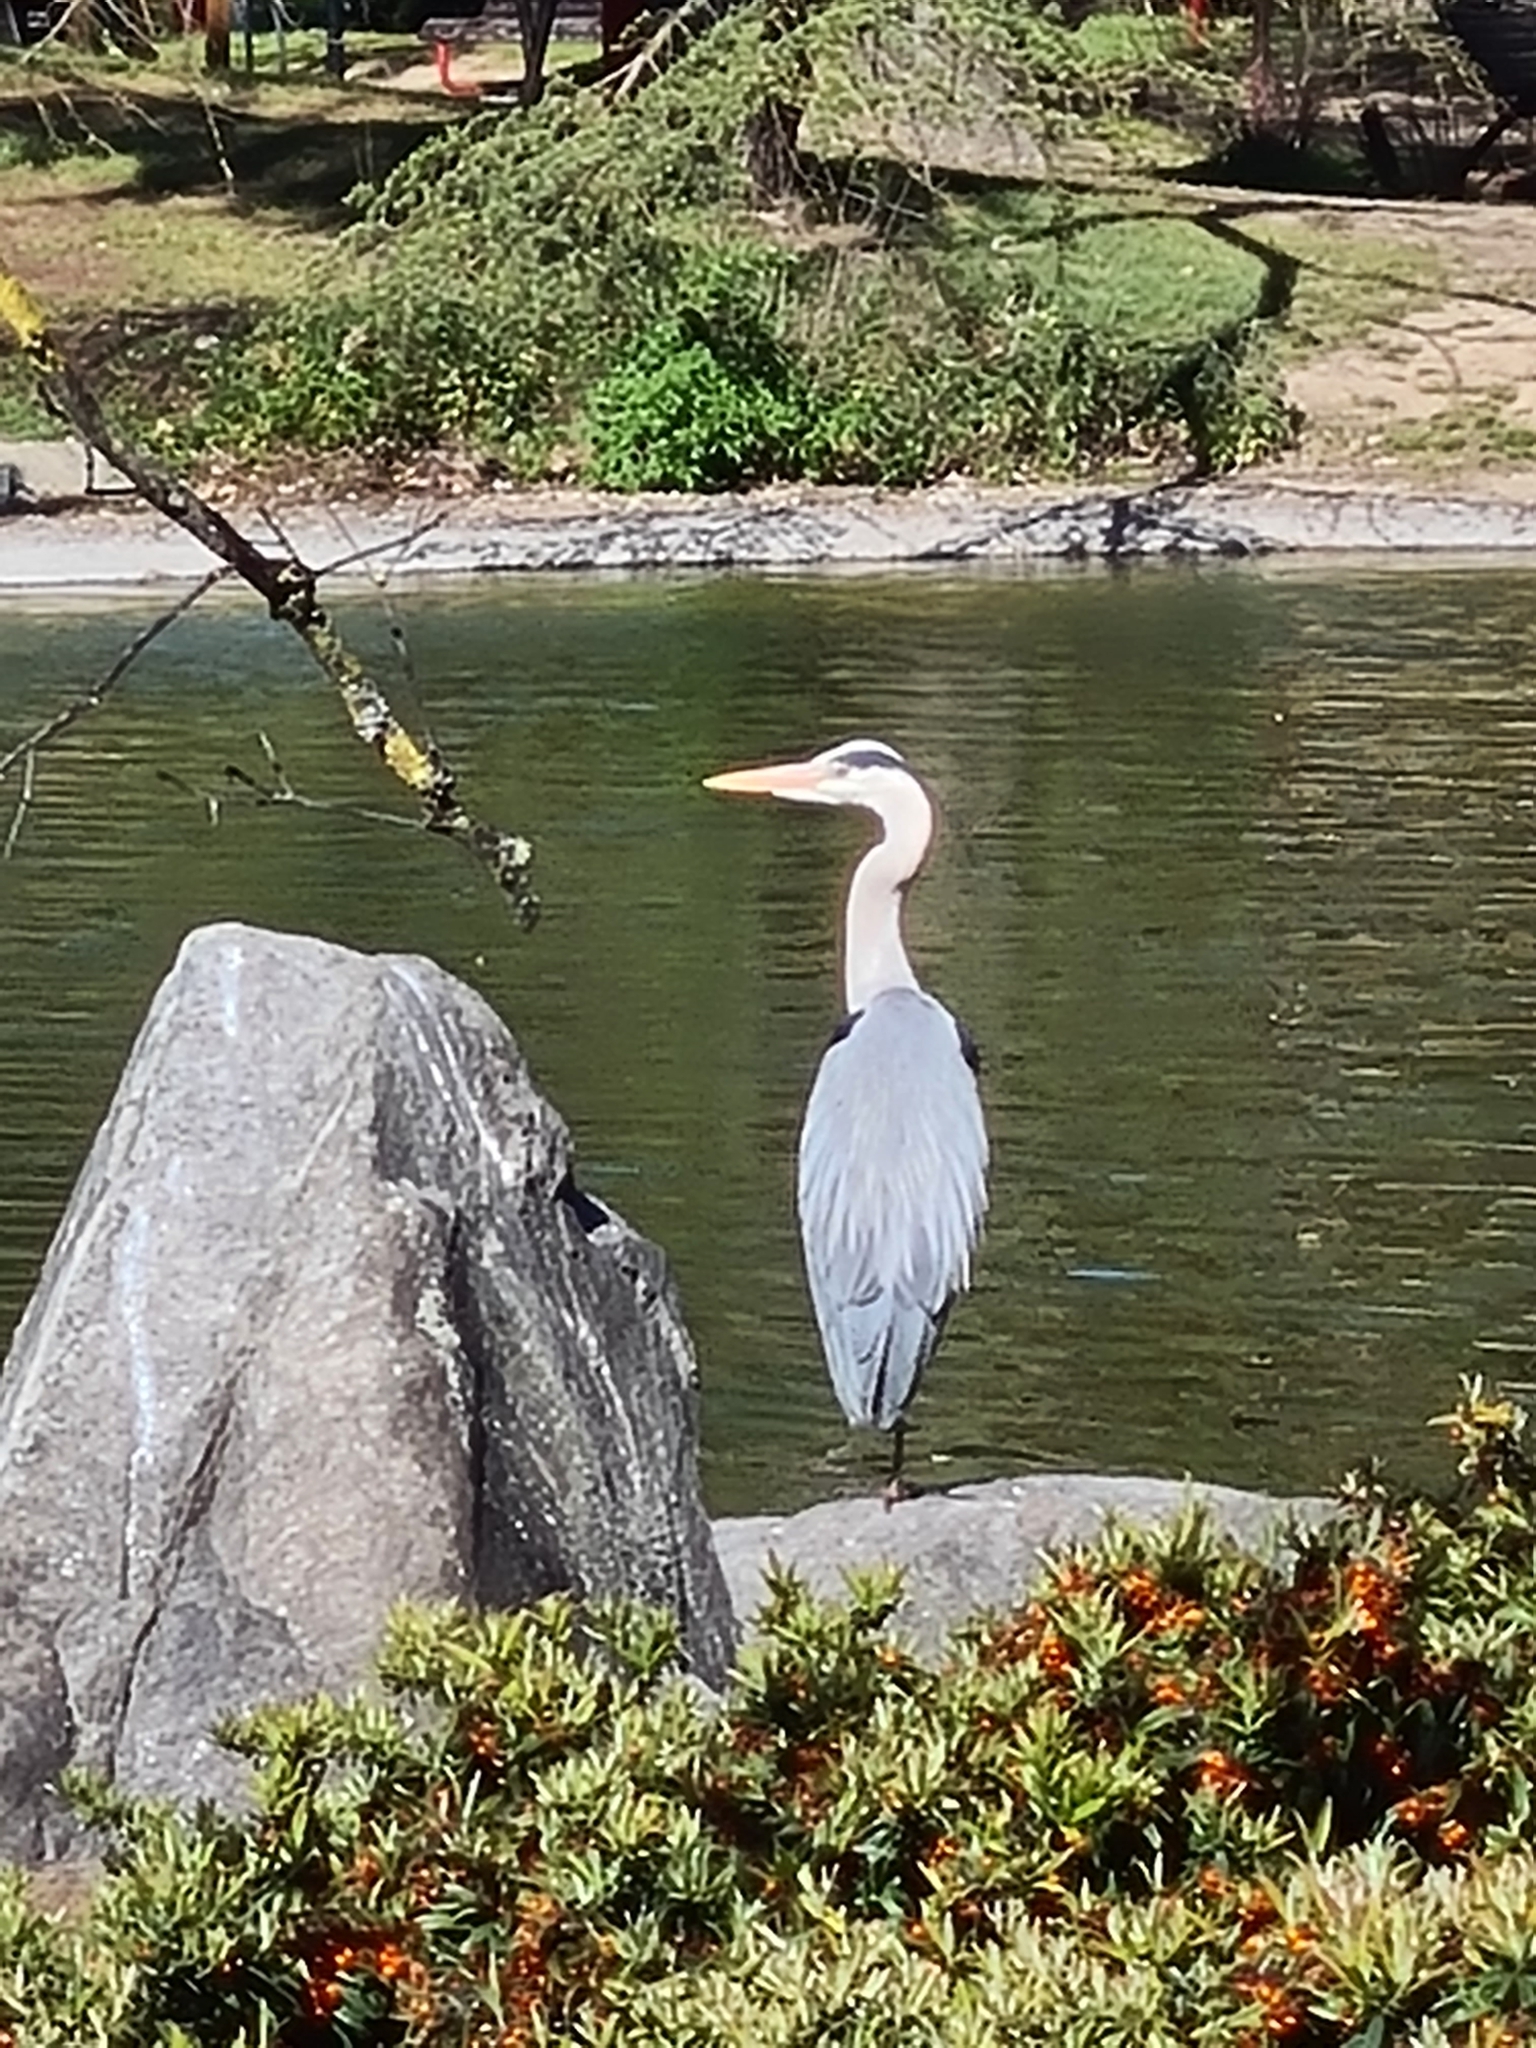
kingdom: Animalia
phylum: Chordata
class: Aves
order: Pelecaniformes
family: Ardeidae
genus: Ardea
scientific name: Ardea cinerea
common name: Grey heron
